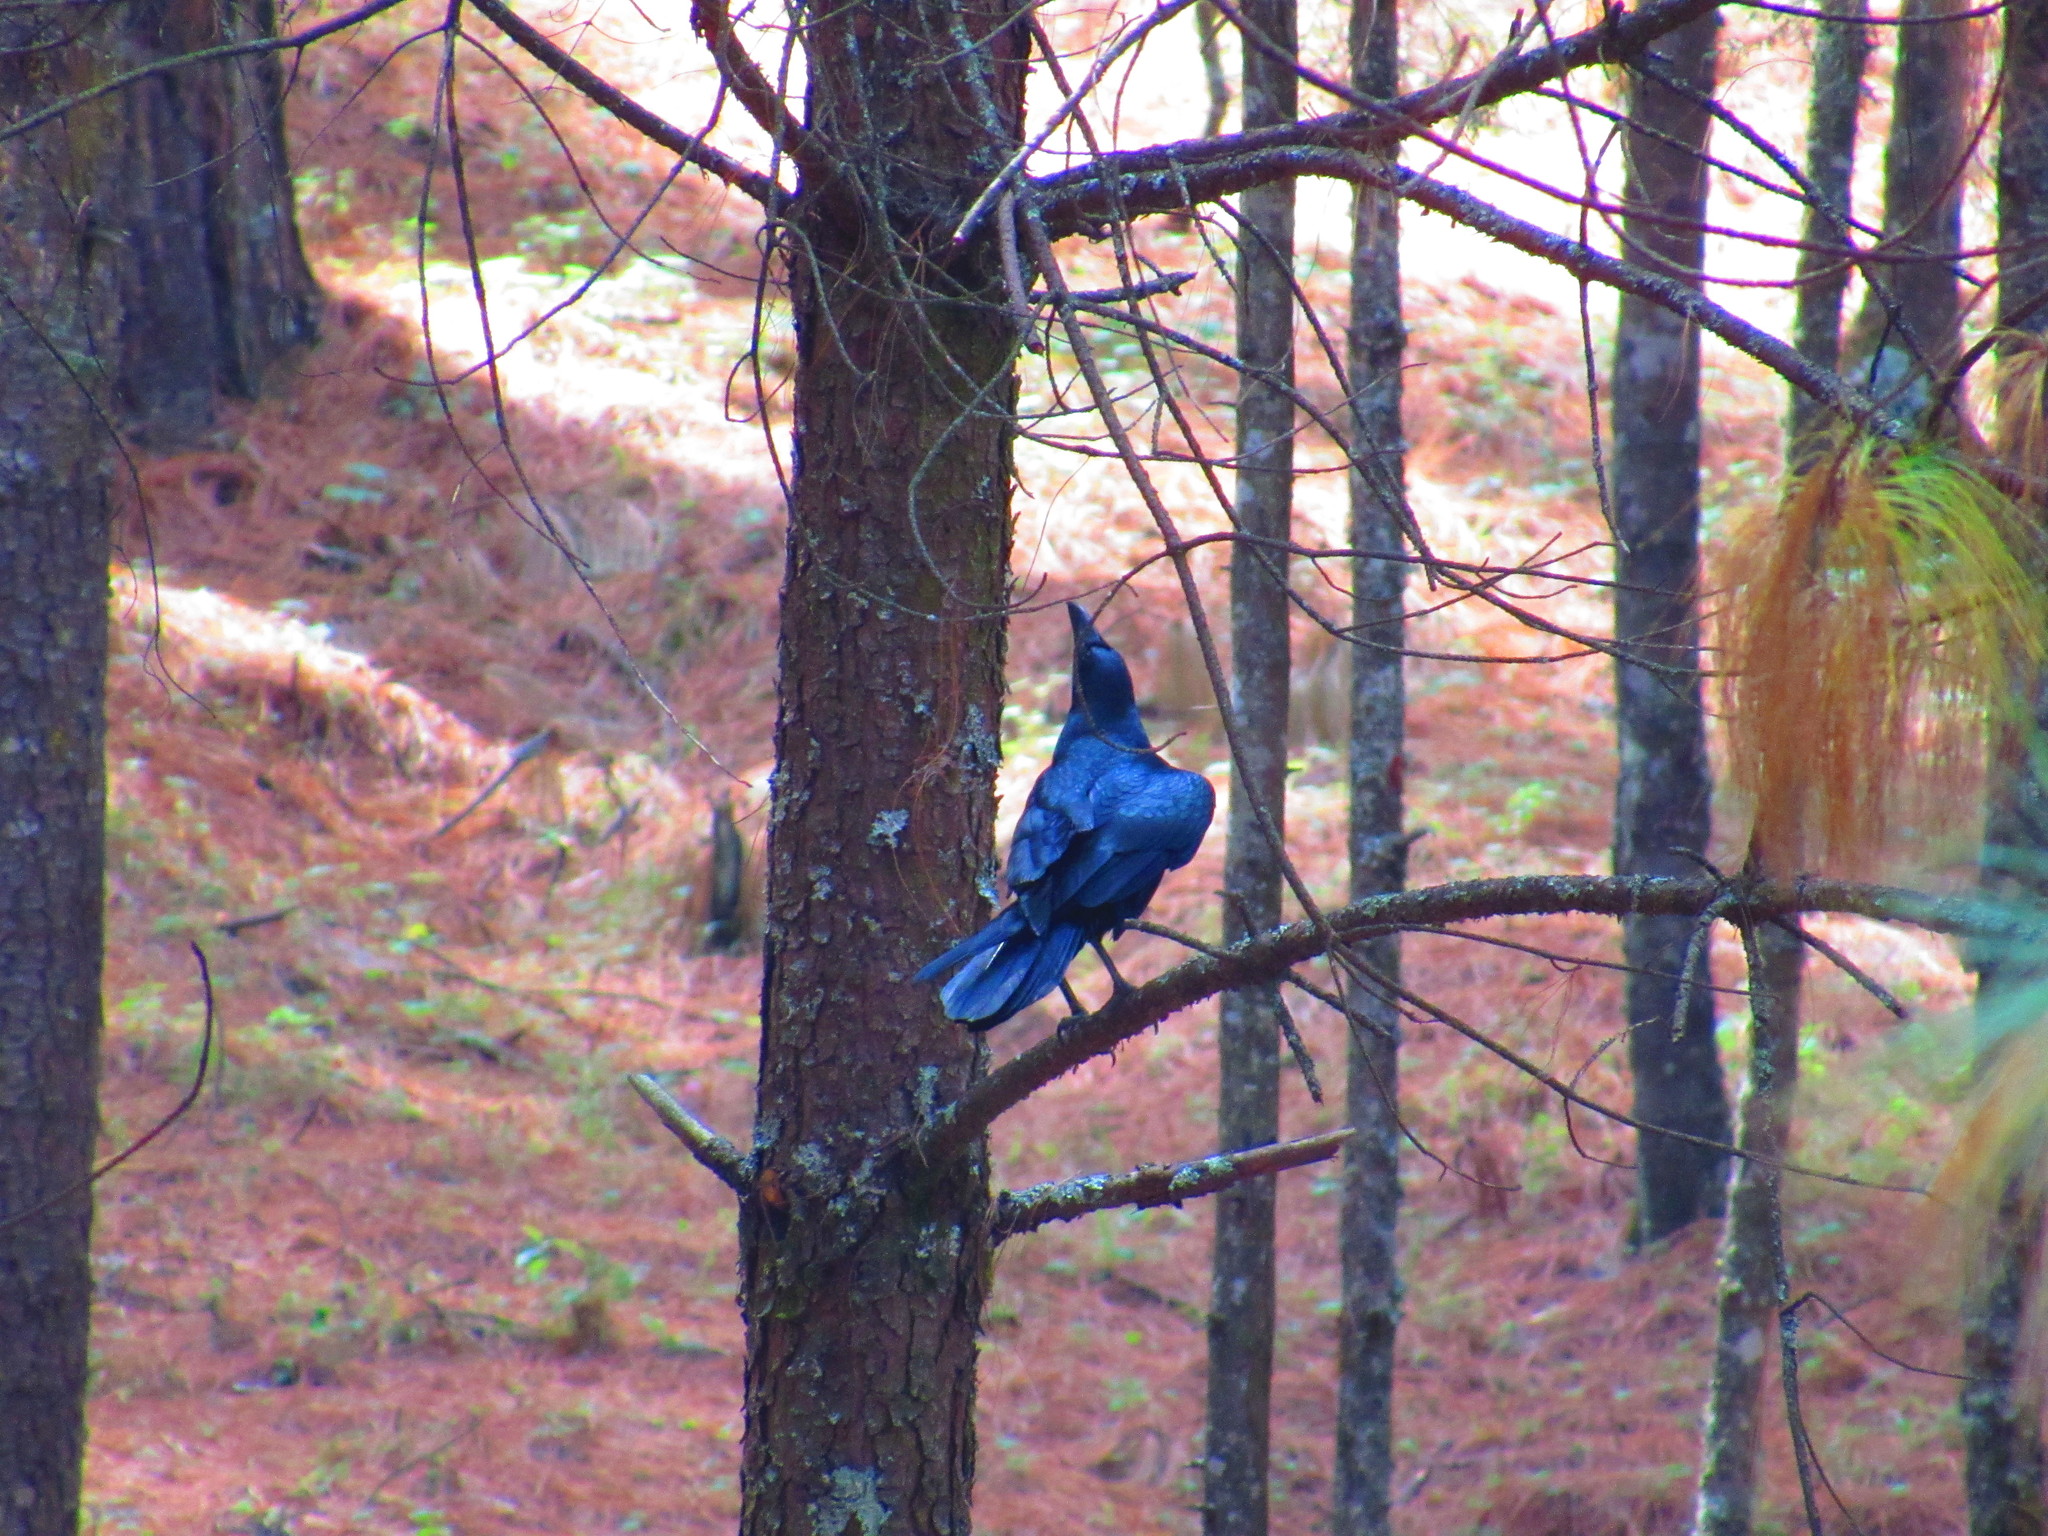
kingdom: Animalia
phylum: Chordata
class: Aves
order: Passeriformes
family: Corvidae
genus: Corvus
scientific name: Corvus corax
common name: Common raven
